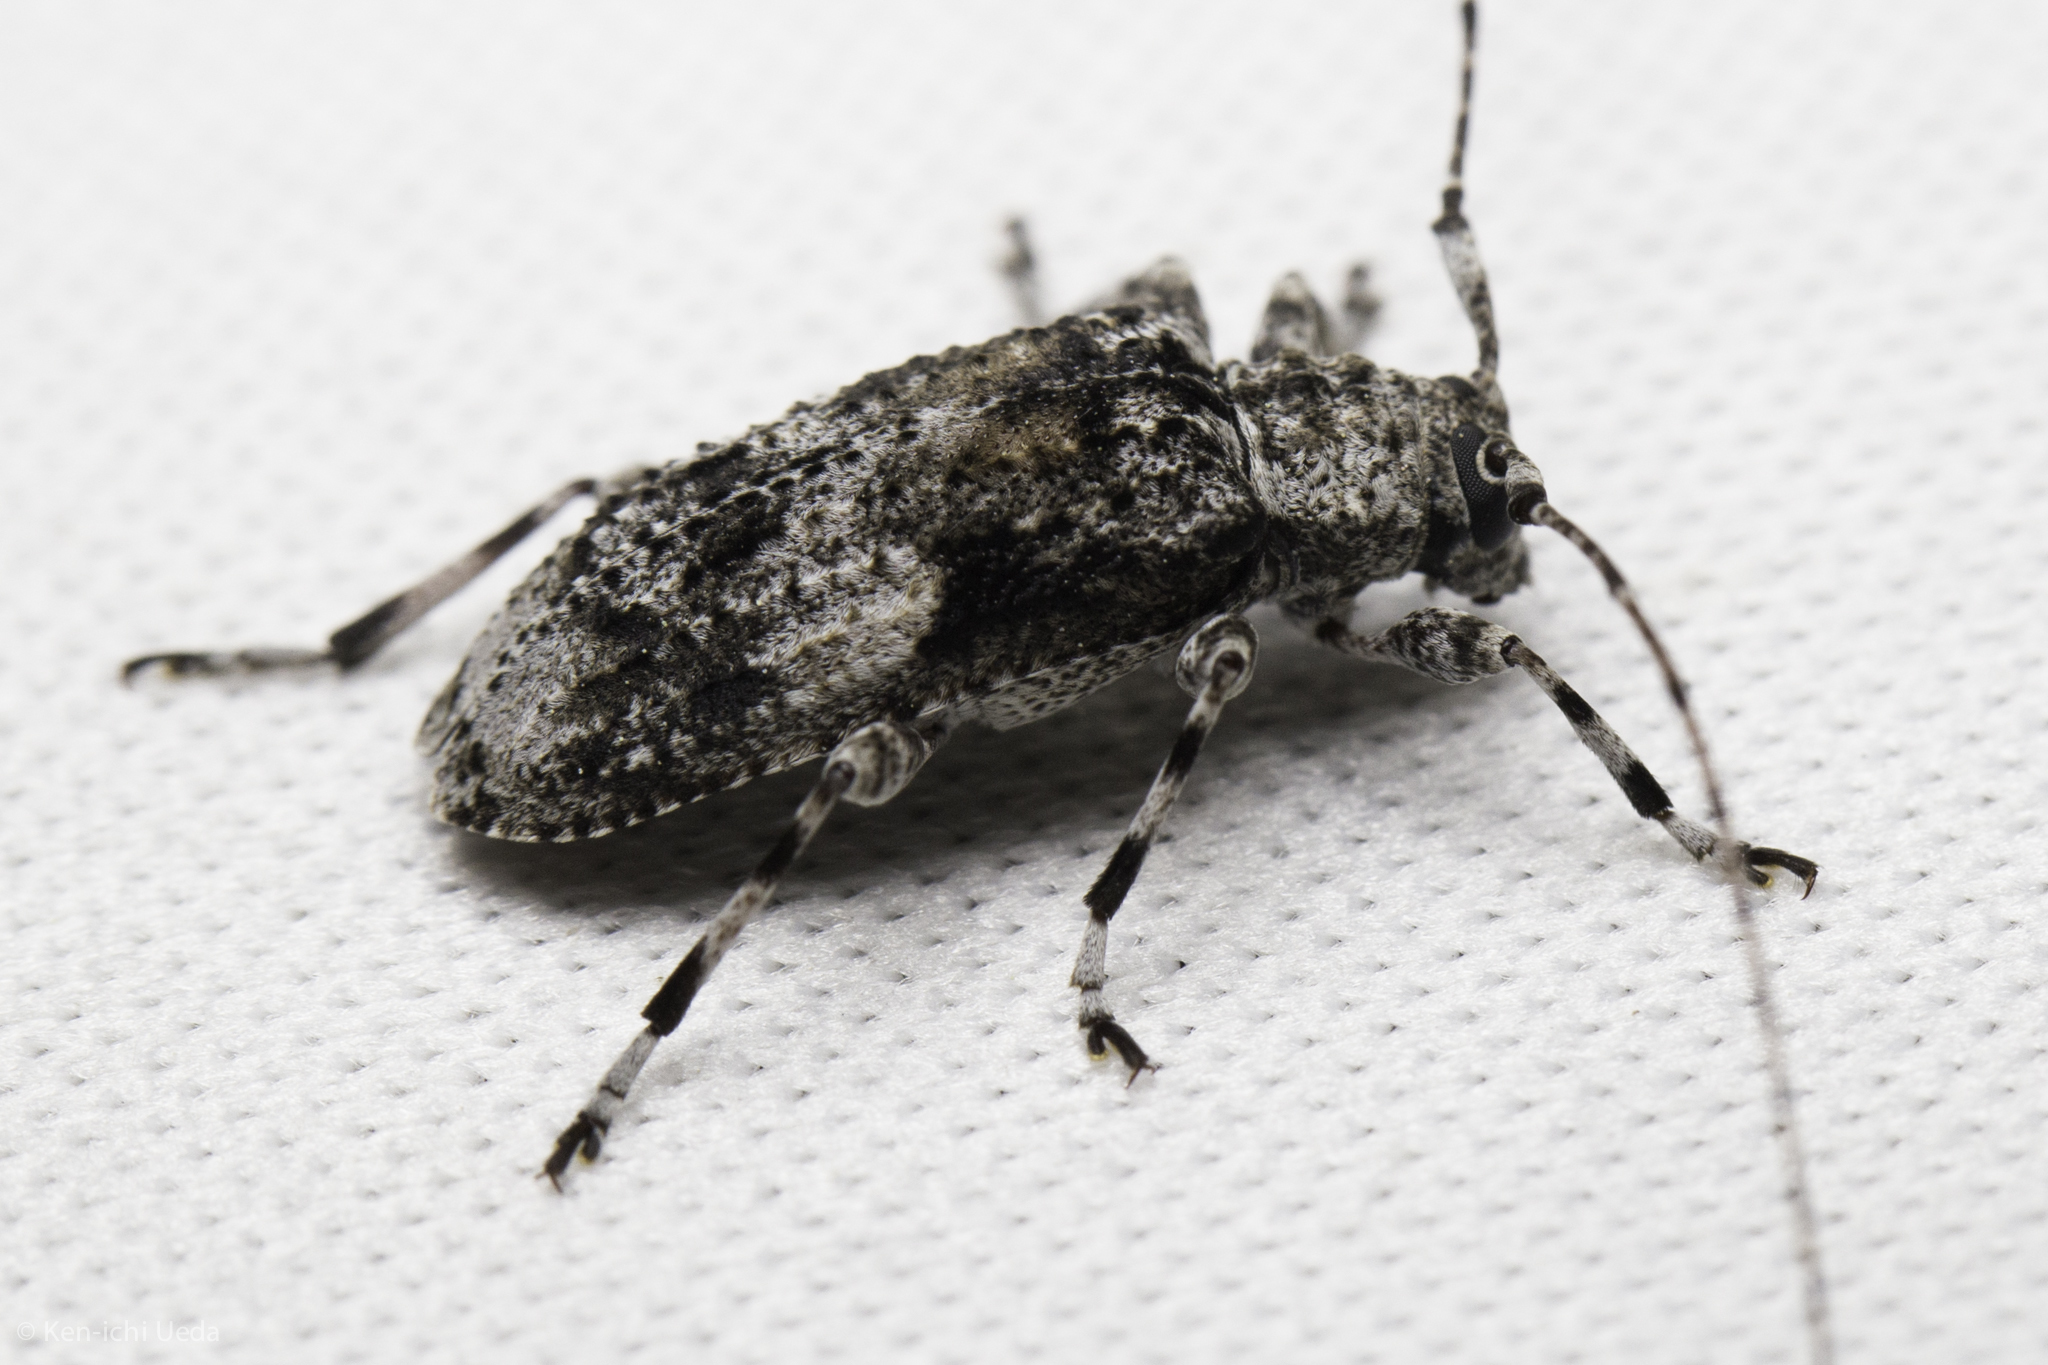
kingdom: Animalia
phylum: Arthropoda
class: Insecta
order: Coleoptera
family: Cerambycidae
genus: Pseudastylopsis
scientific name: Pseudastylopsis nebulosus
